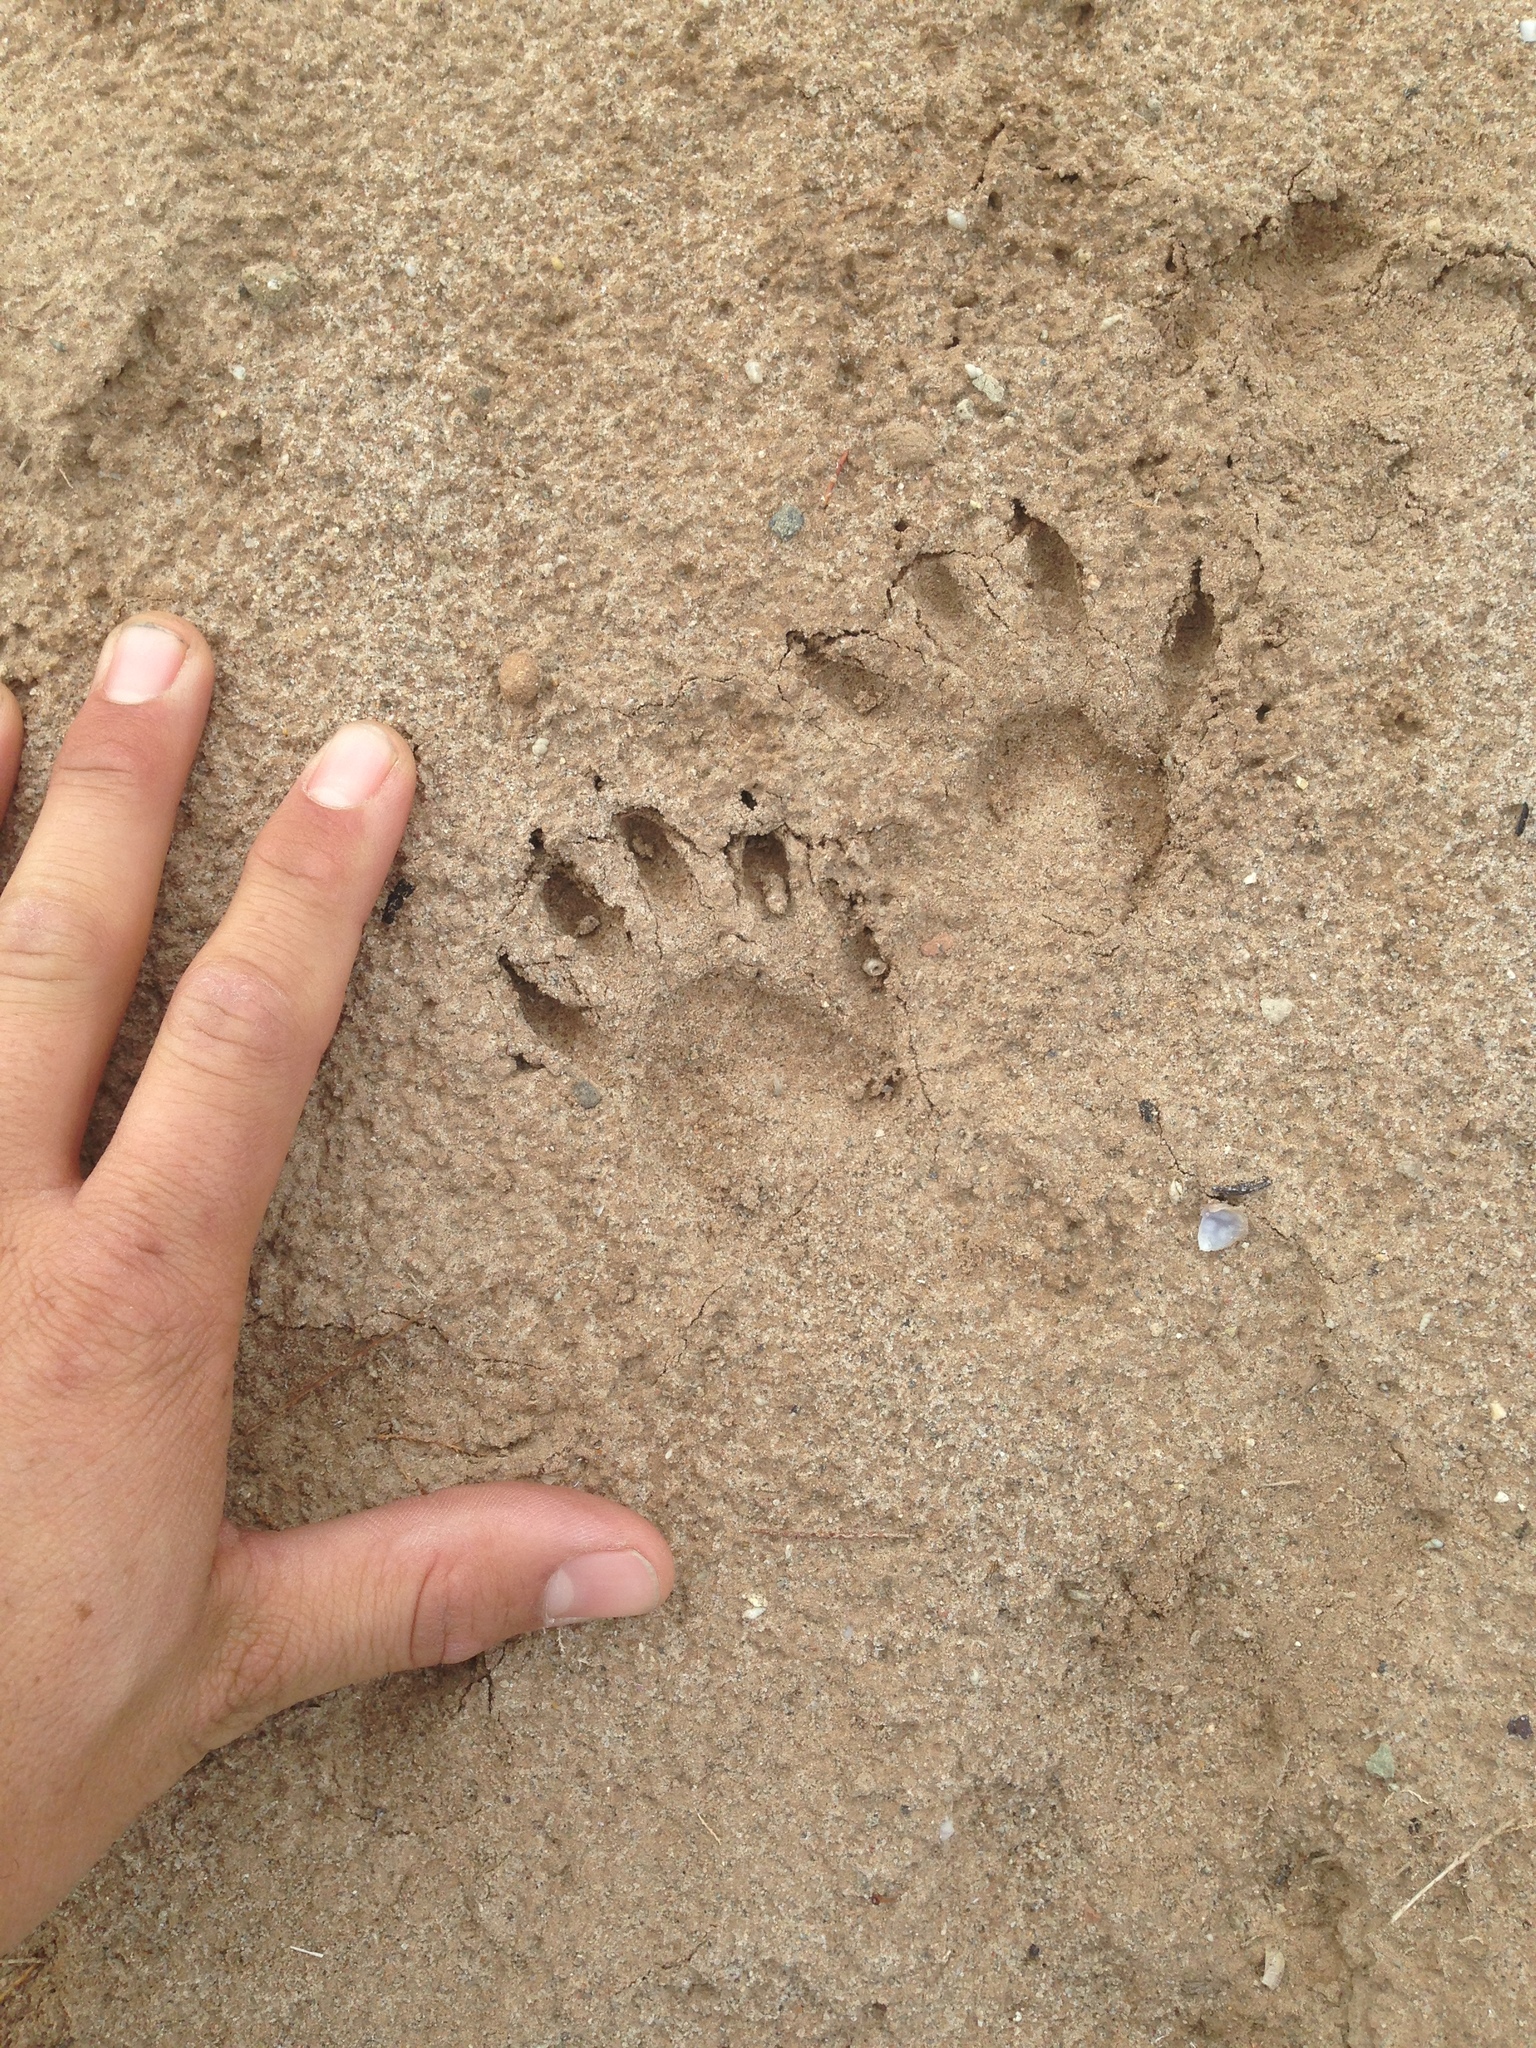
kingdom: Animalia
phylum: Chordata
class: Mammalia
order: Carnivora
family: Procyonidae
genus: Procyon
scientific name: Procyon lotor
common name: Raccoon
